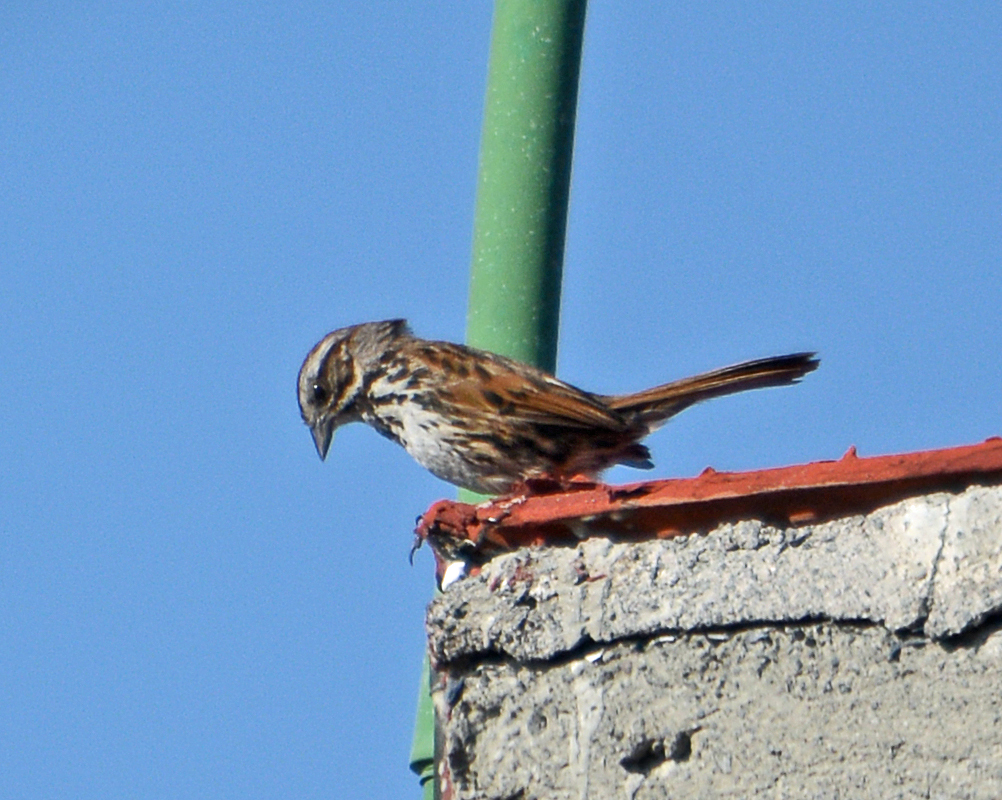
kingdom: Animalia
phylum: Chordata
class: Aves
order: Passeriformes
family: Passerellidae
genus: Melospiza
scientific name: Melospiza melodia
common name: Song sparrow
